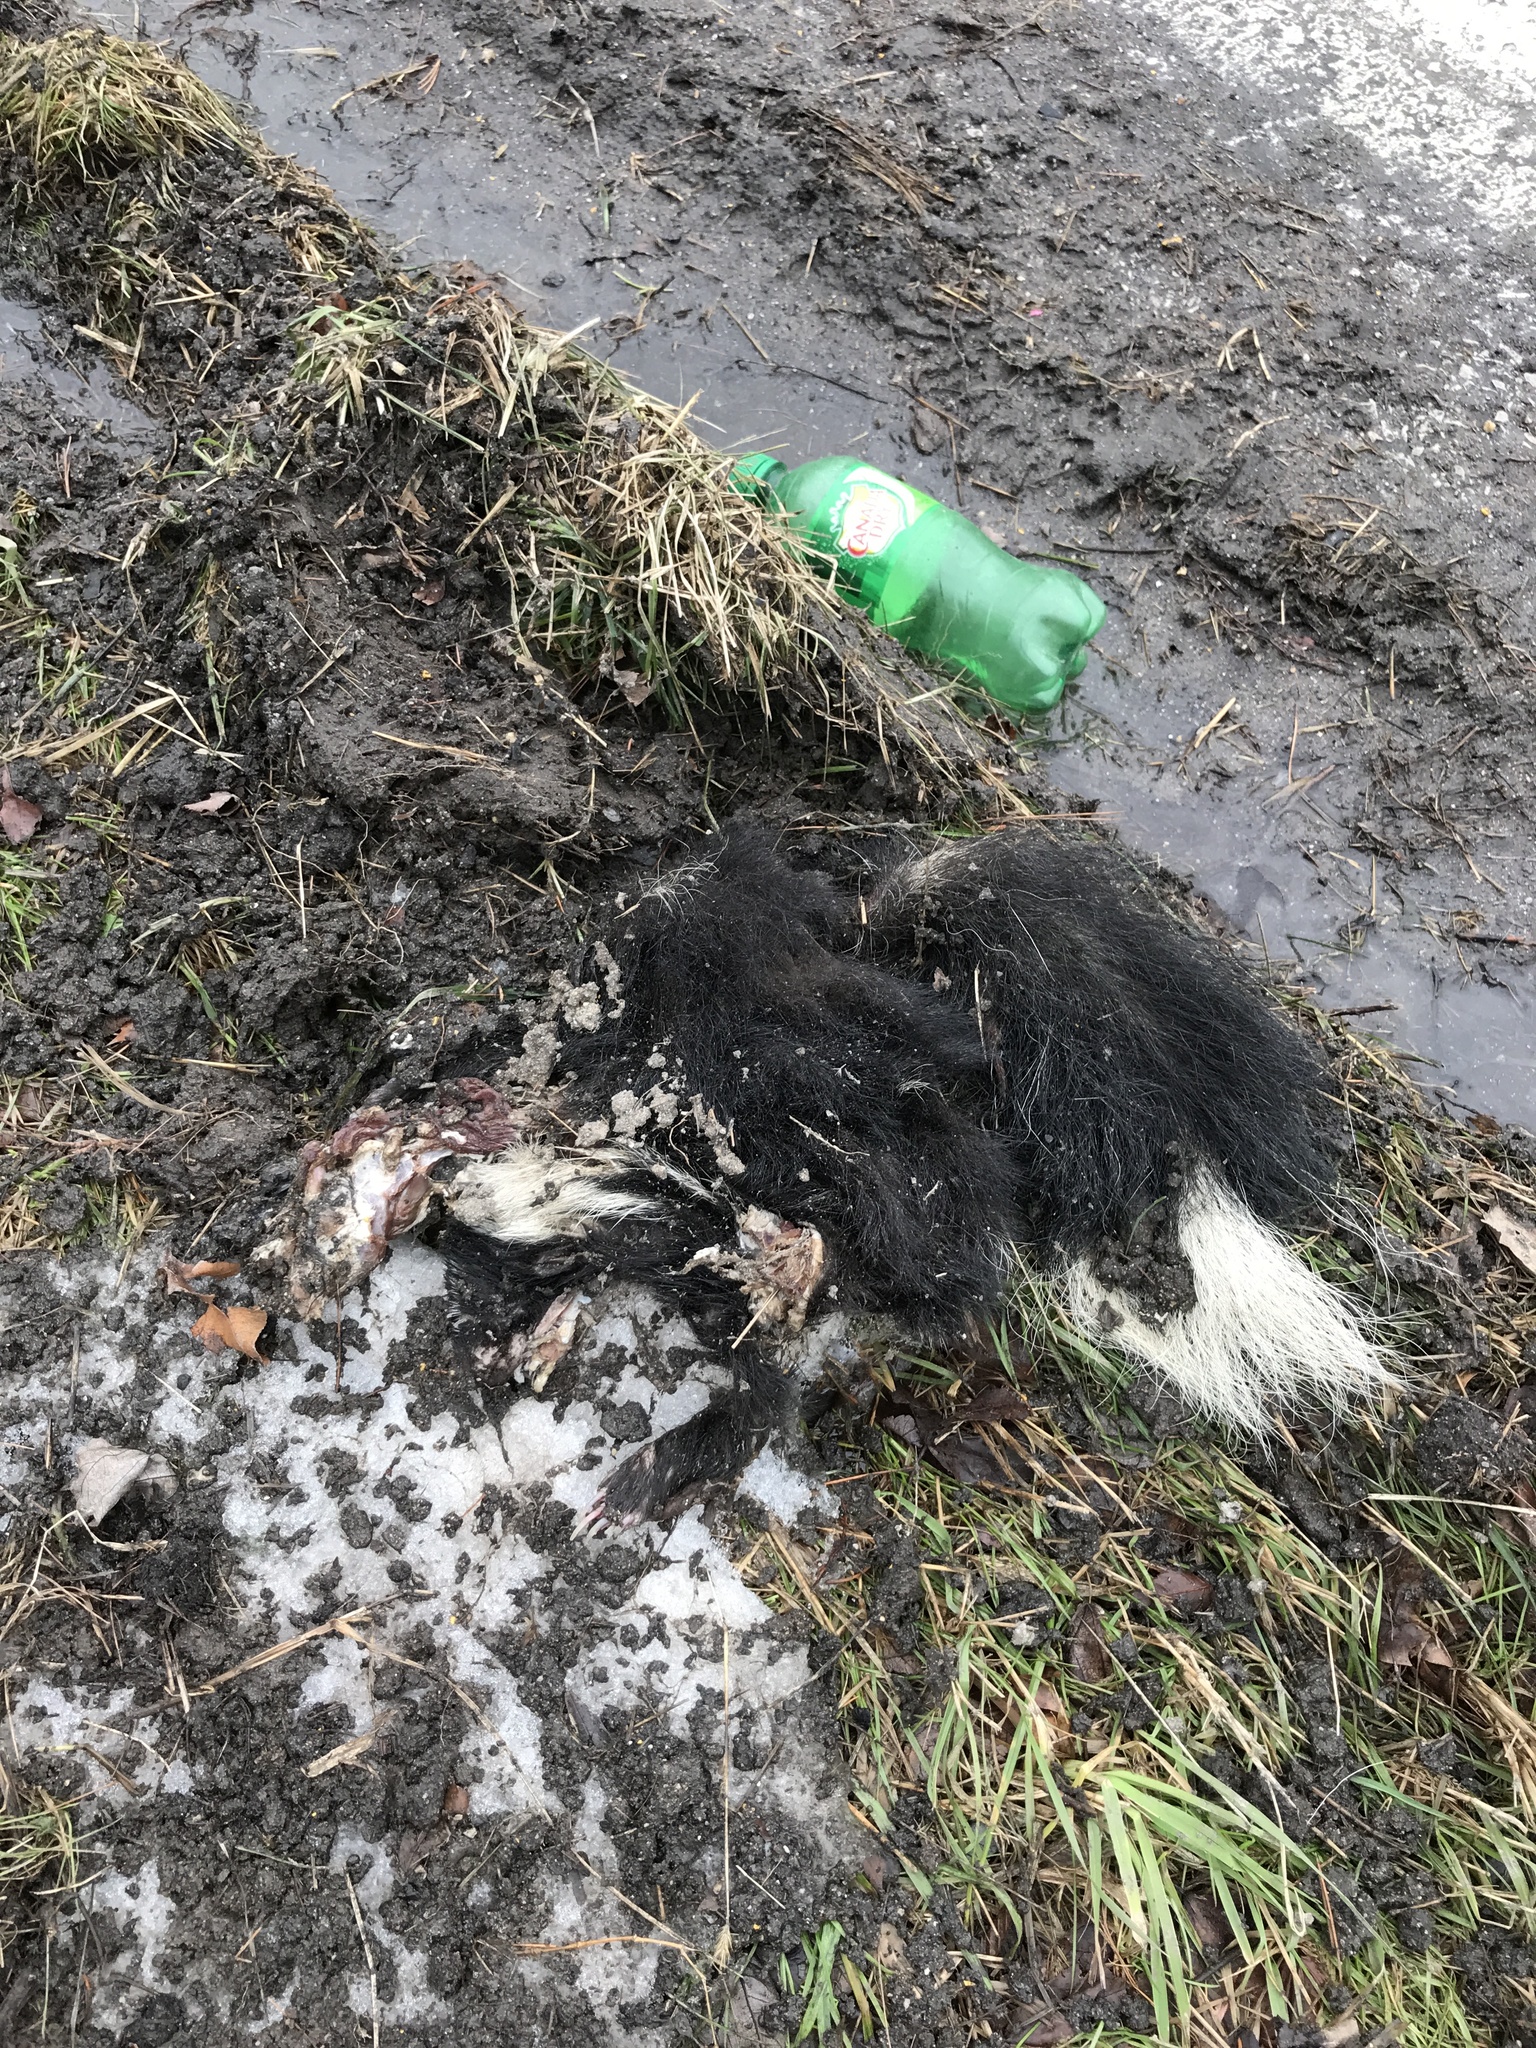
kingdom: Animalia
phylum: Chordata
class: Mammalia
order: Carnivora
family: Mephitidae
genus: Mephitis
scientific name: Mephitis mephitis
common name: Striped skunk
